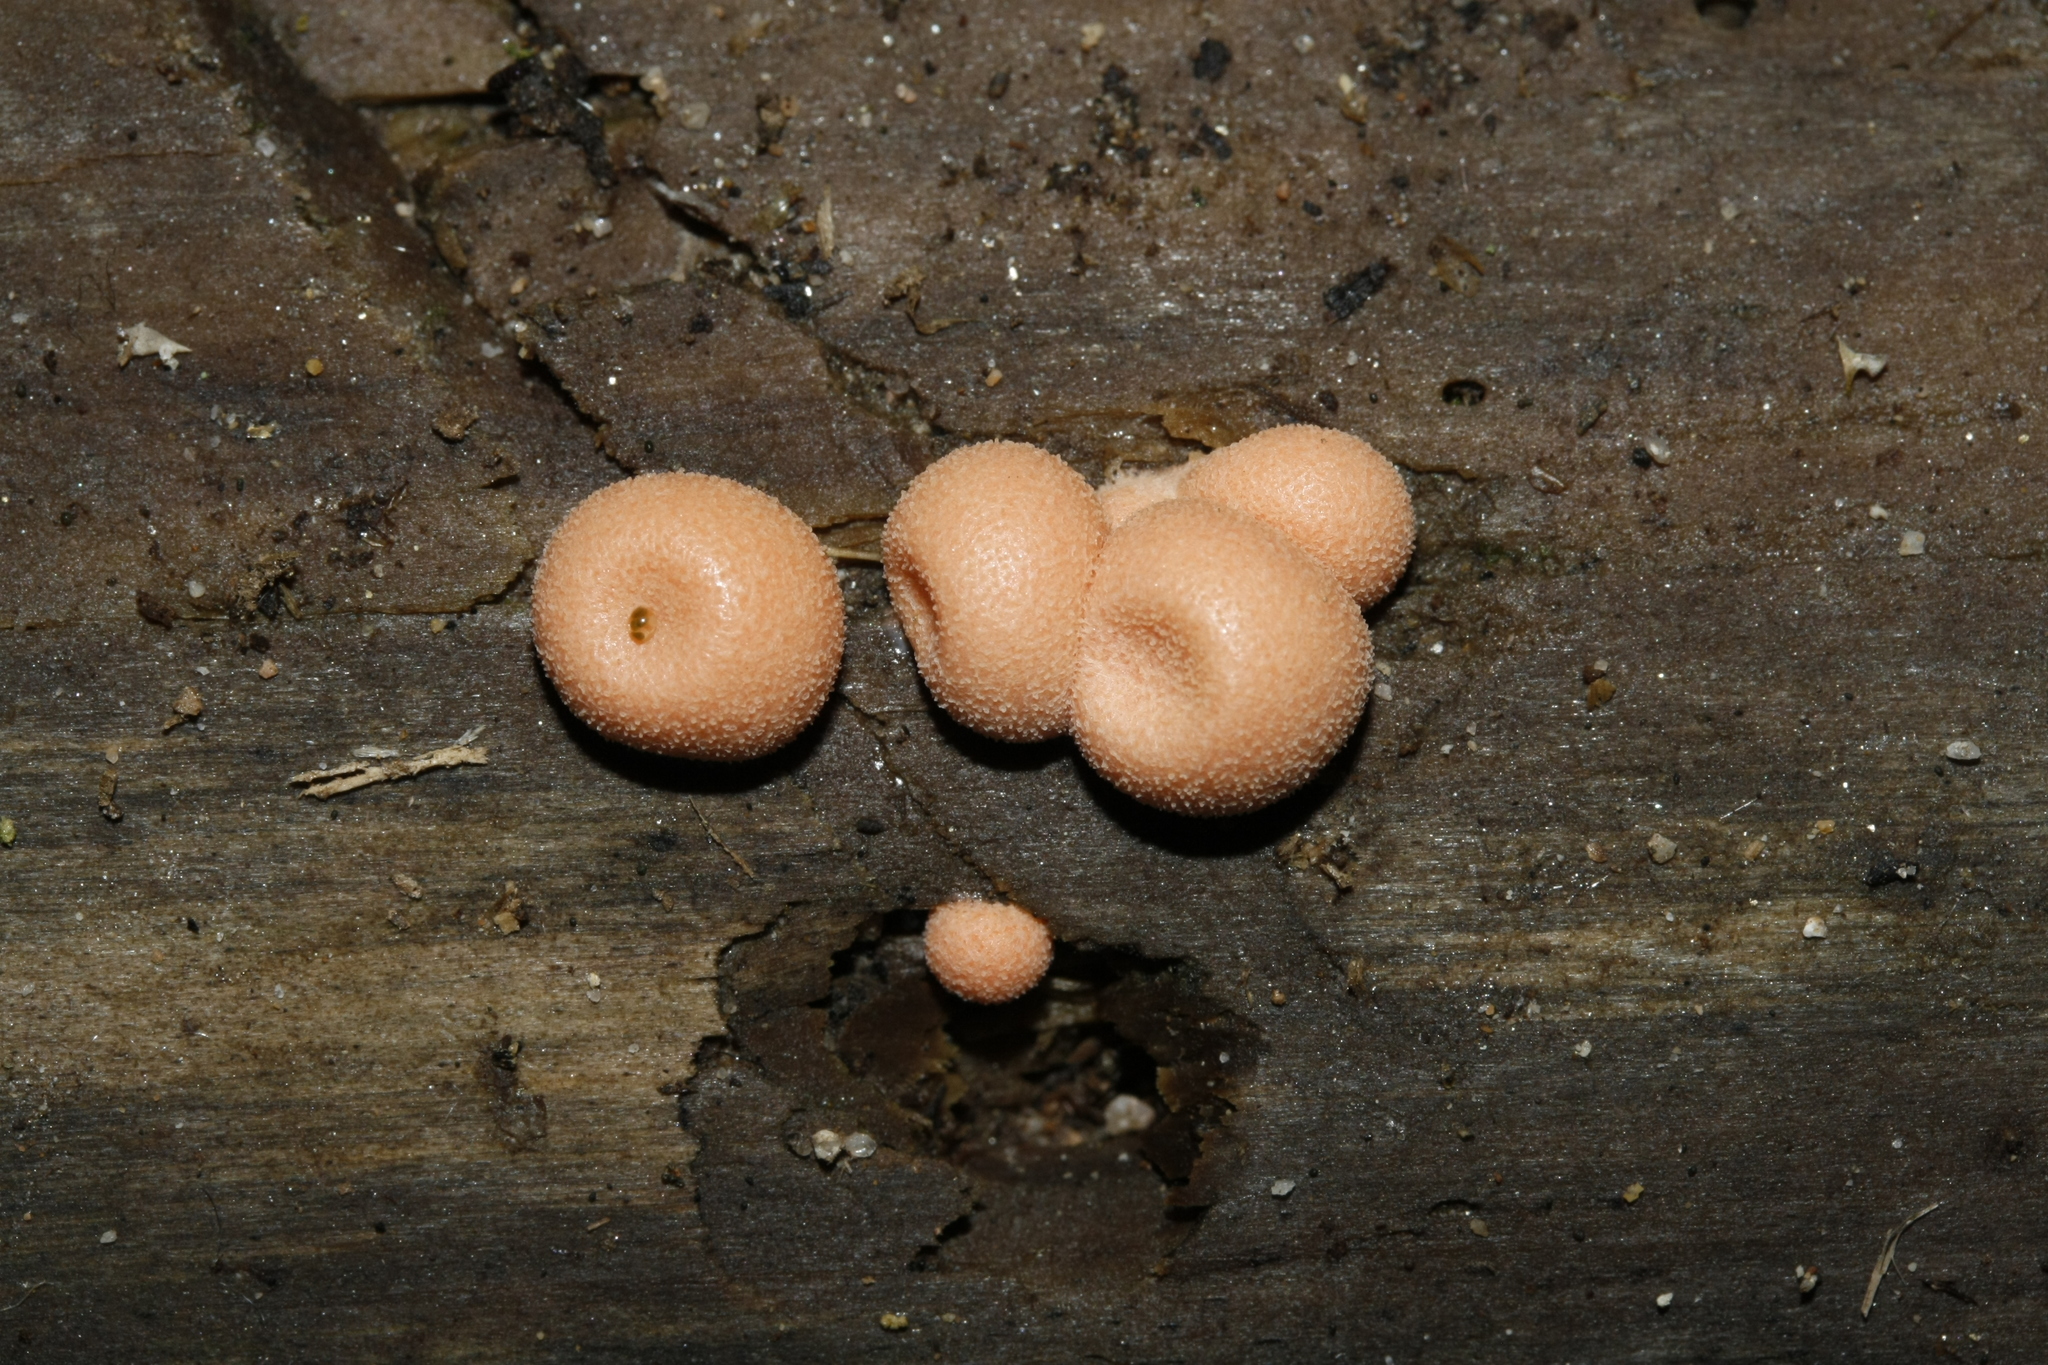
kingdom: Protozoa
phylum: Mycetozoa
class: Myxomycetes
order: Cribrariales
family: Tubiferaceae
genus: Lycogala
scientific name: Lycogala epidendrum
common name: Wolf's milk
